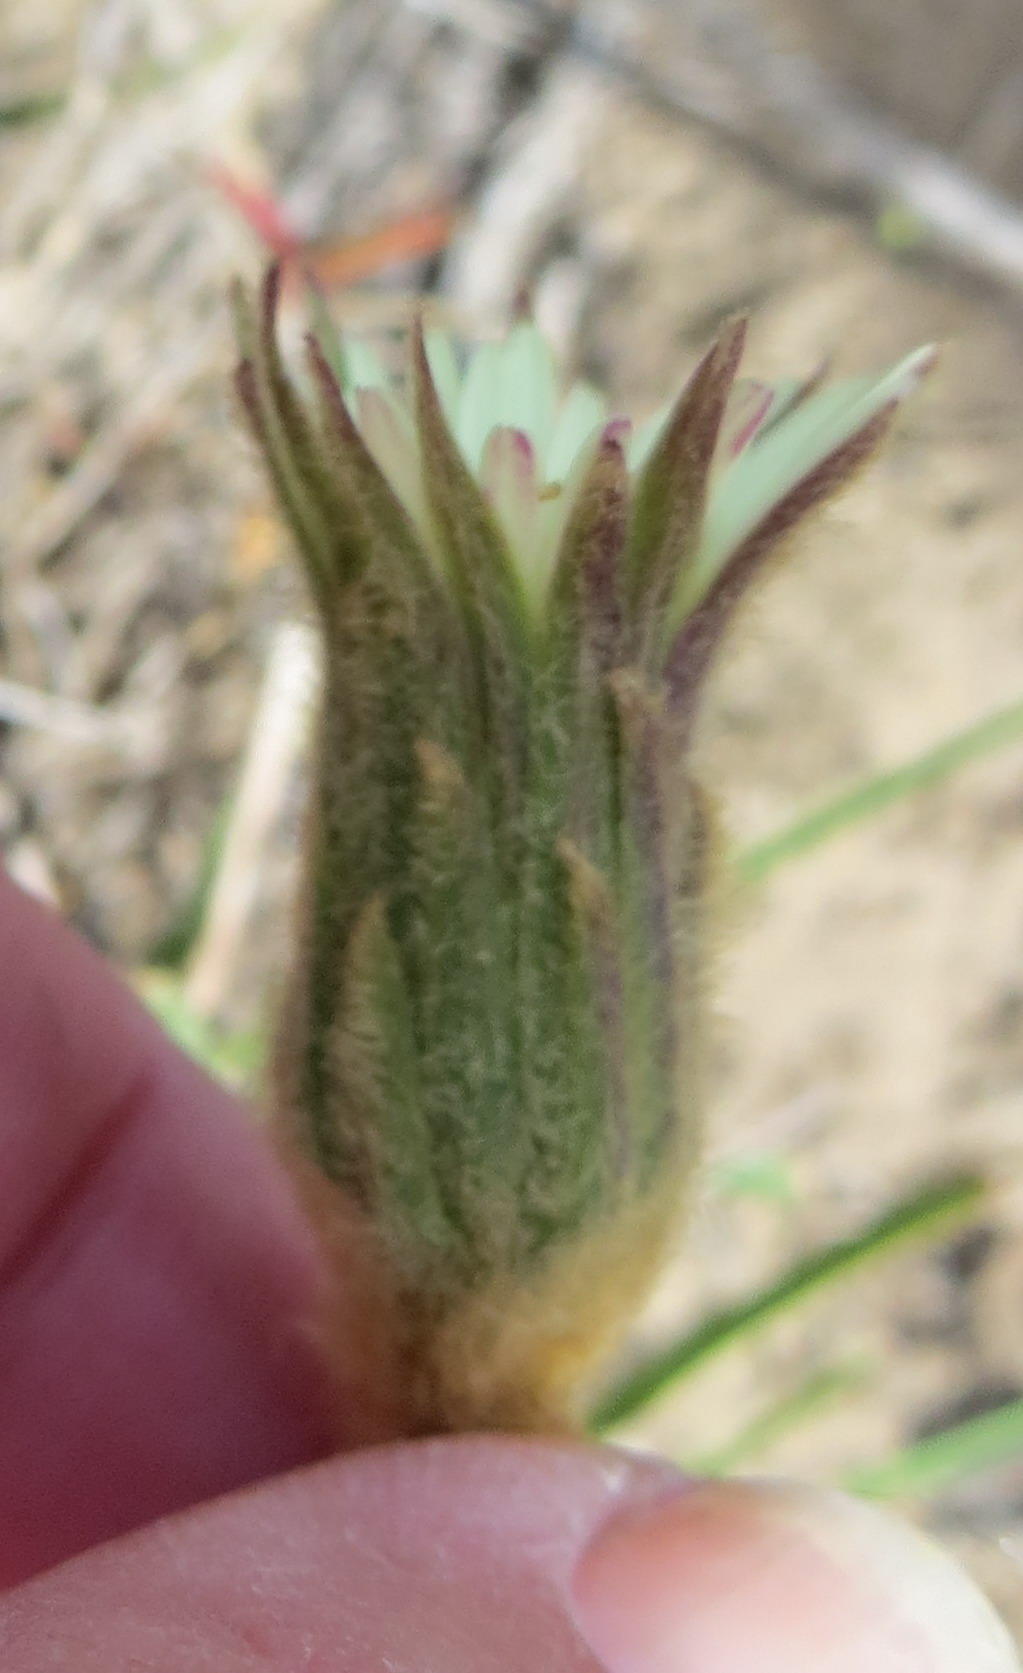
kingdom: Plantae
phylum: Tracheophyta
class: Magnoliopsida
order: Asterales
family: Asteraceae
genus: Piloselloides
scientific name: Piloselloides hirsuta
